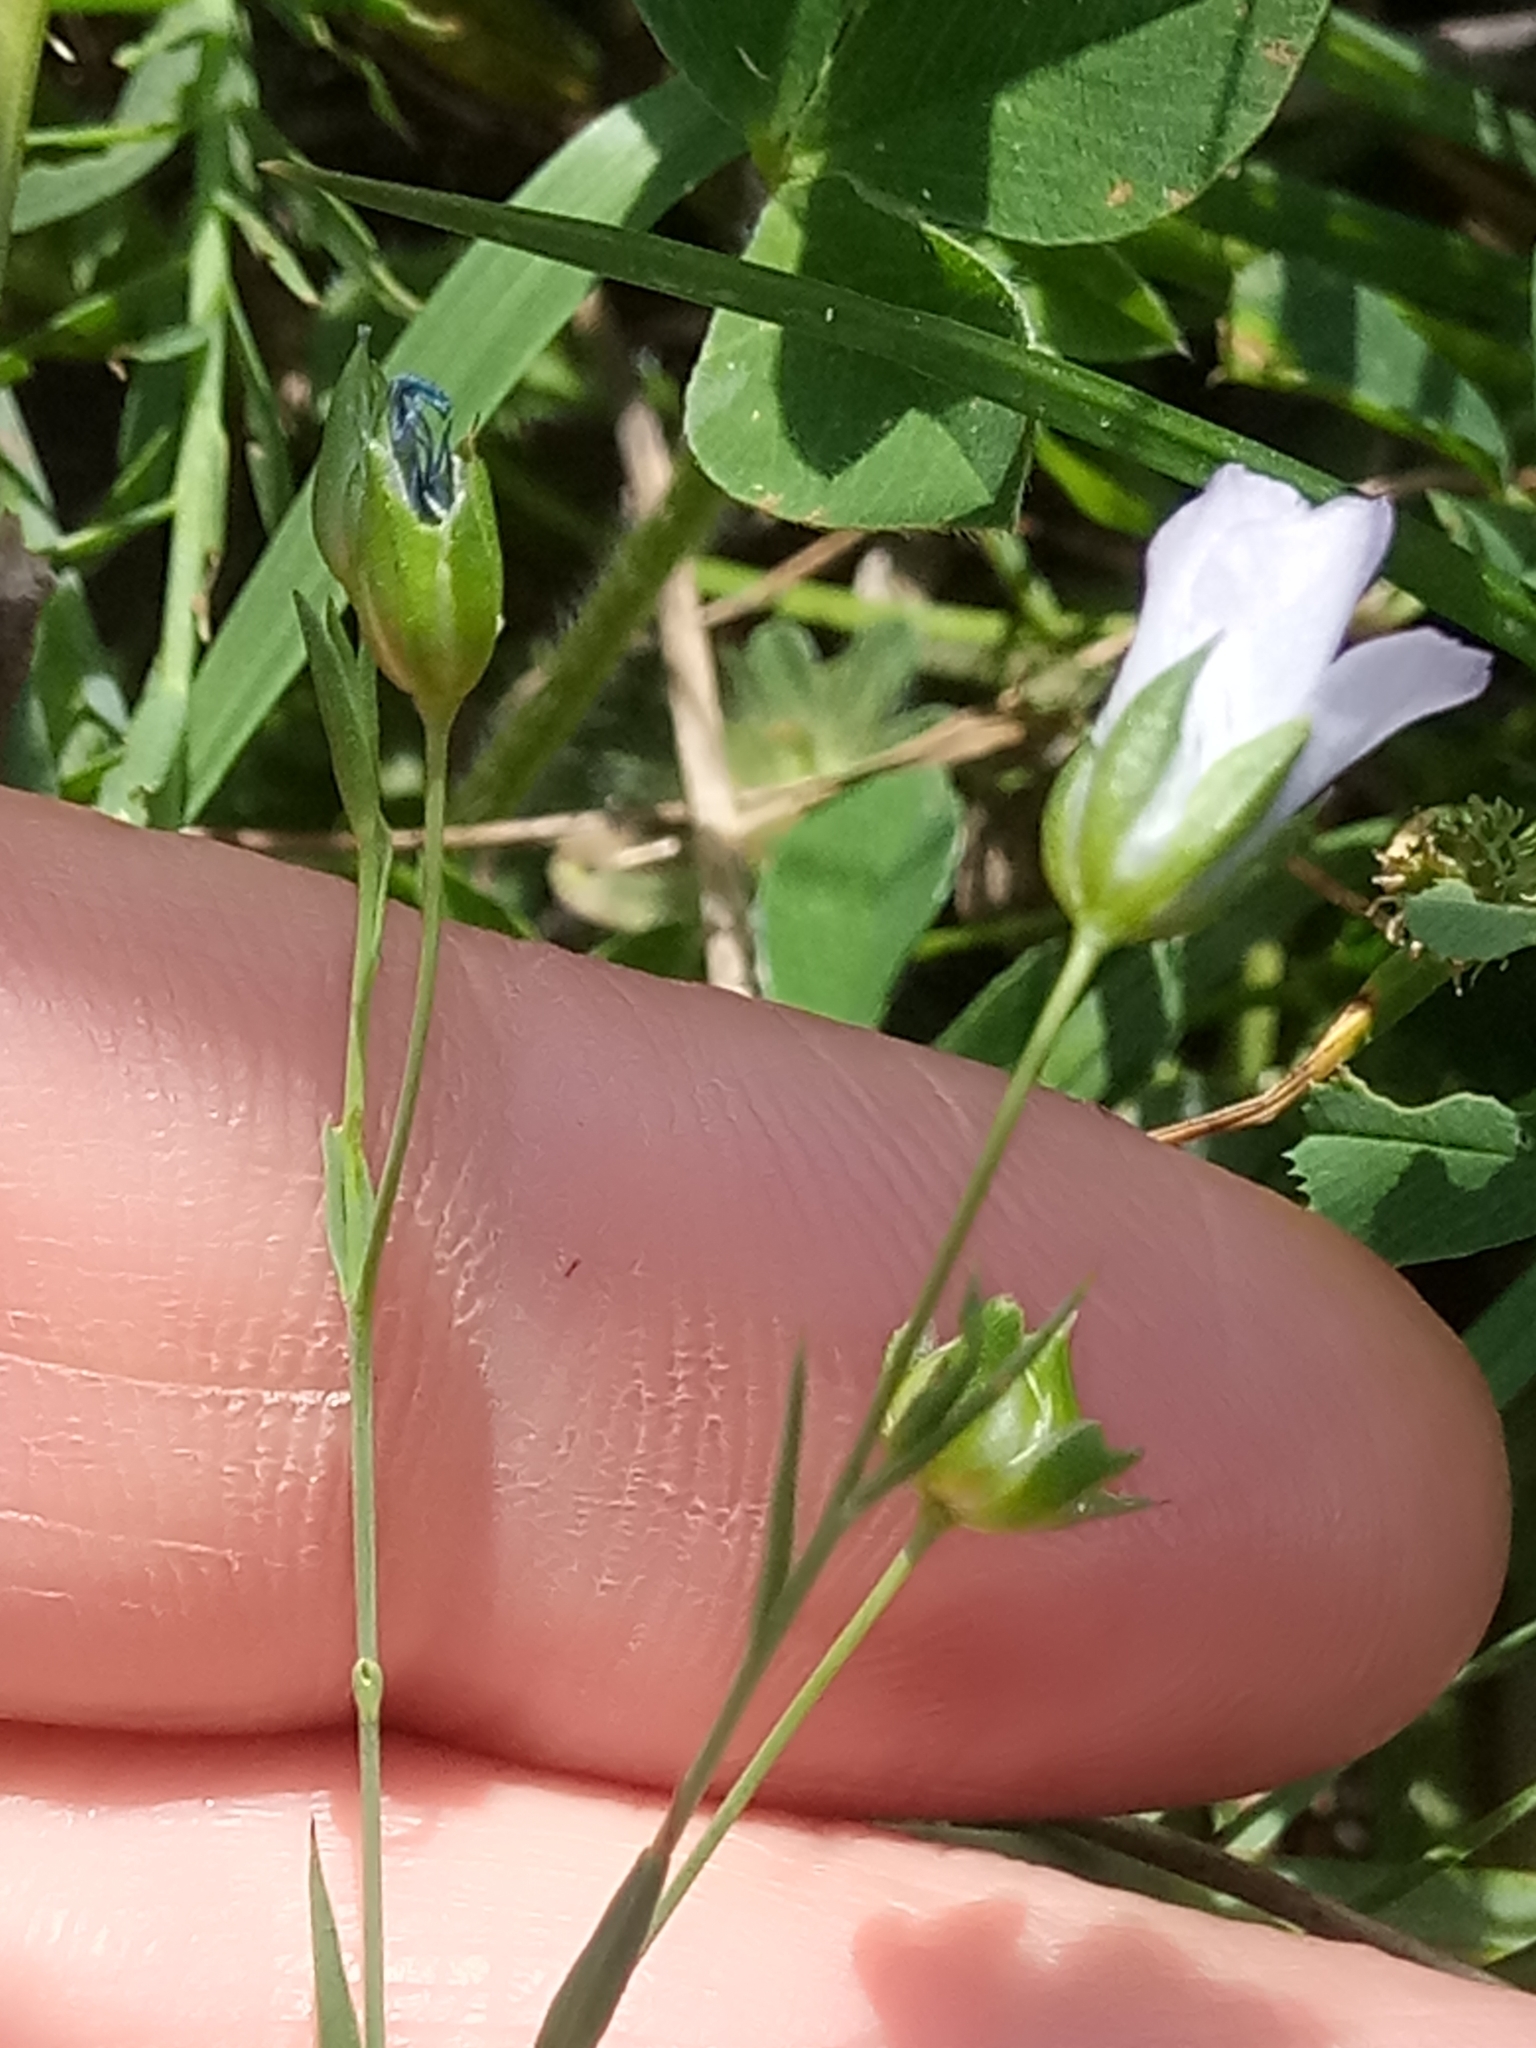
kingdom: Plantae
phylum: Tracheophyta
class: Magnoliopsida
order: Malpighiales
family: Linaceae
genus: Linum
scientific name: Linum bienne
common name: Pale flax
